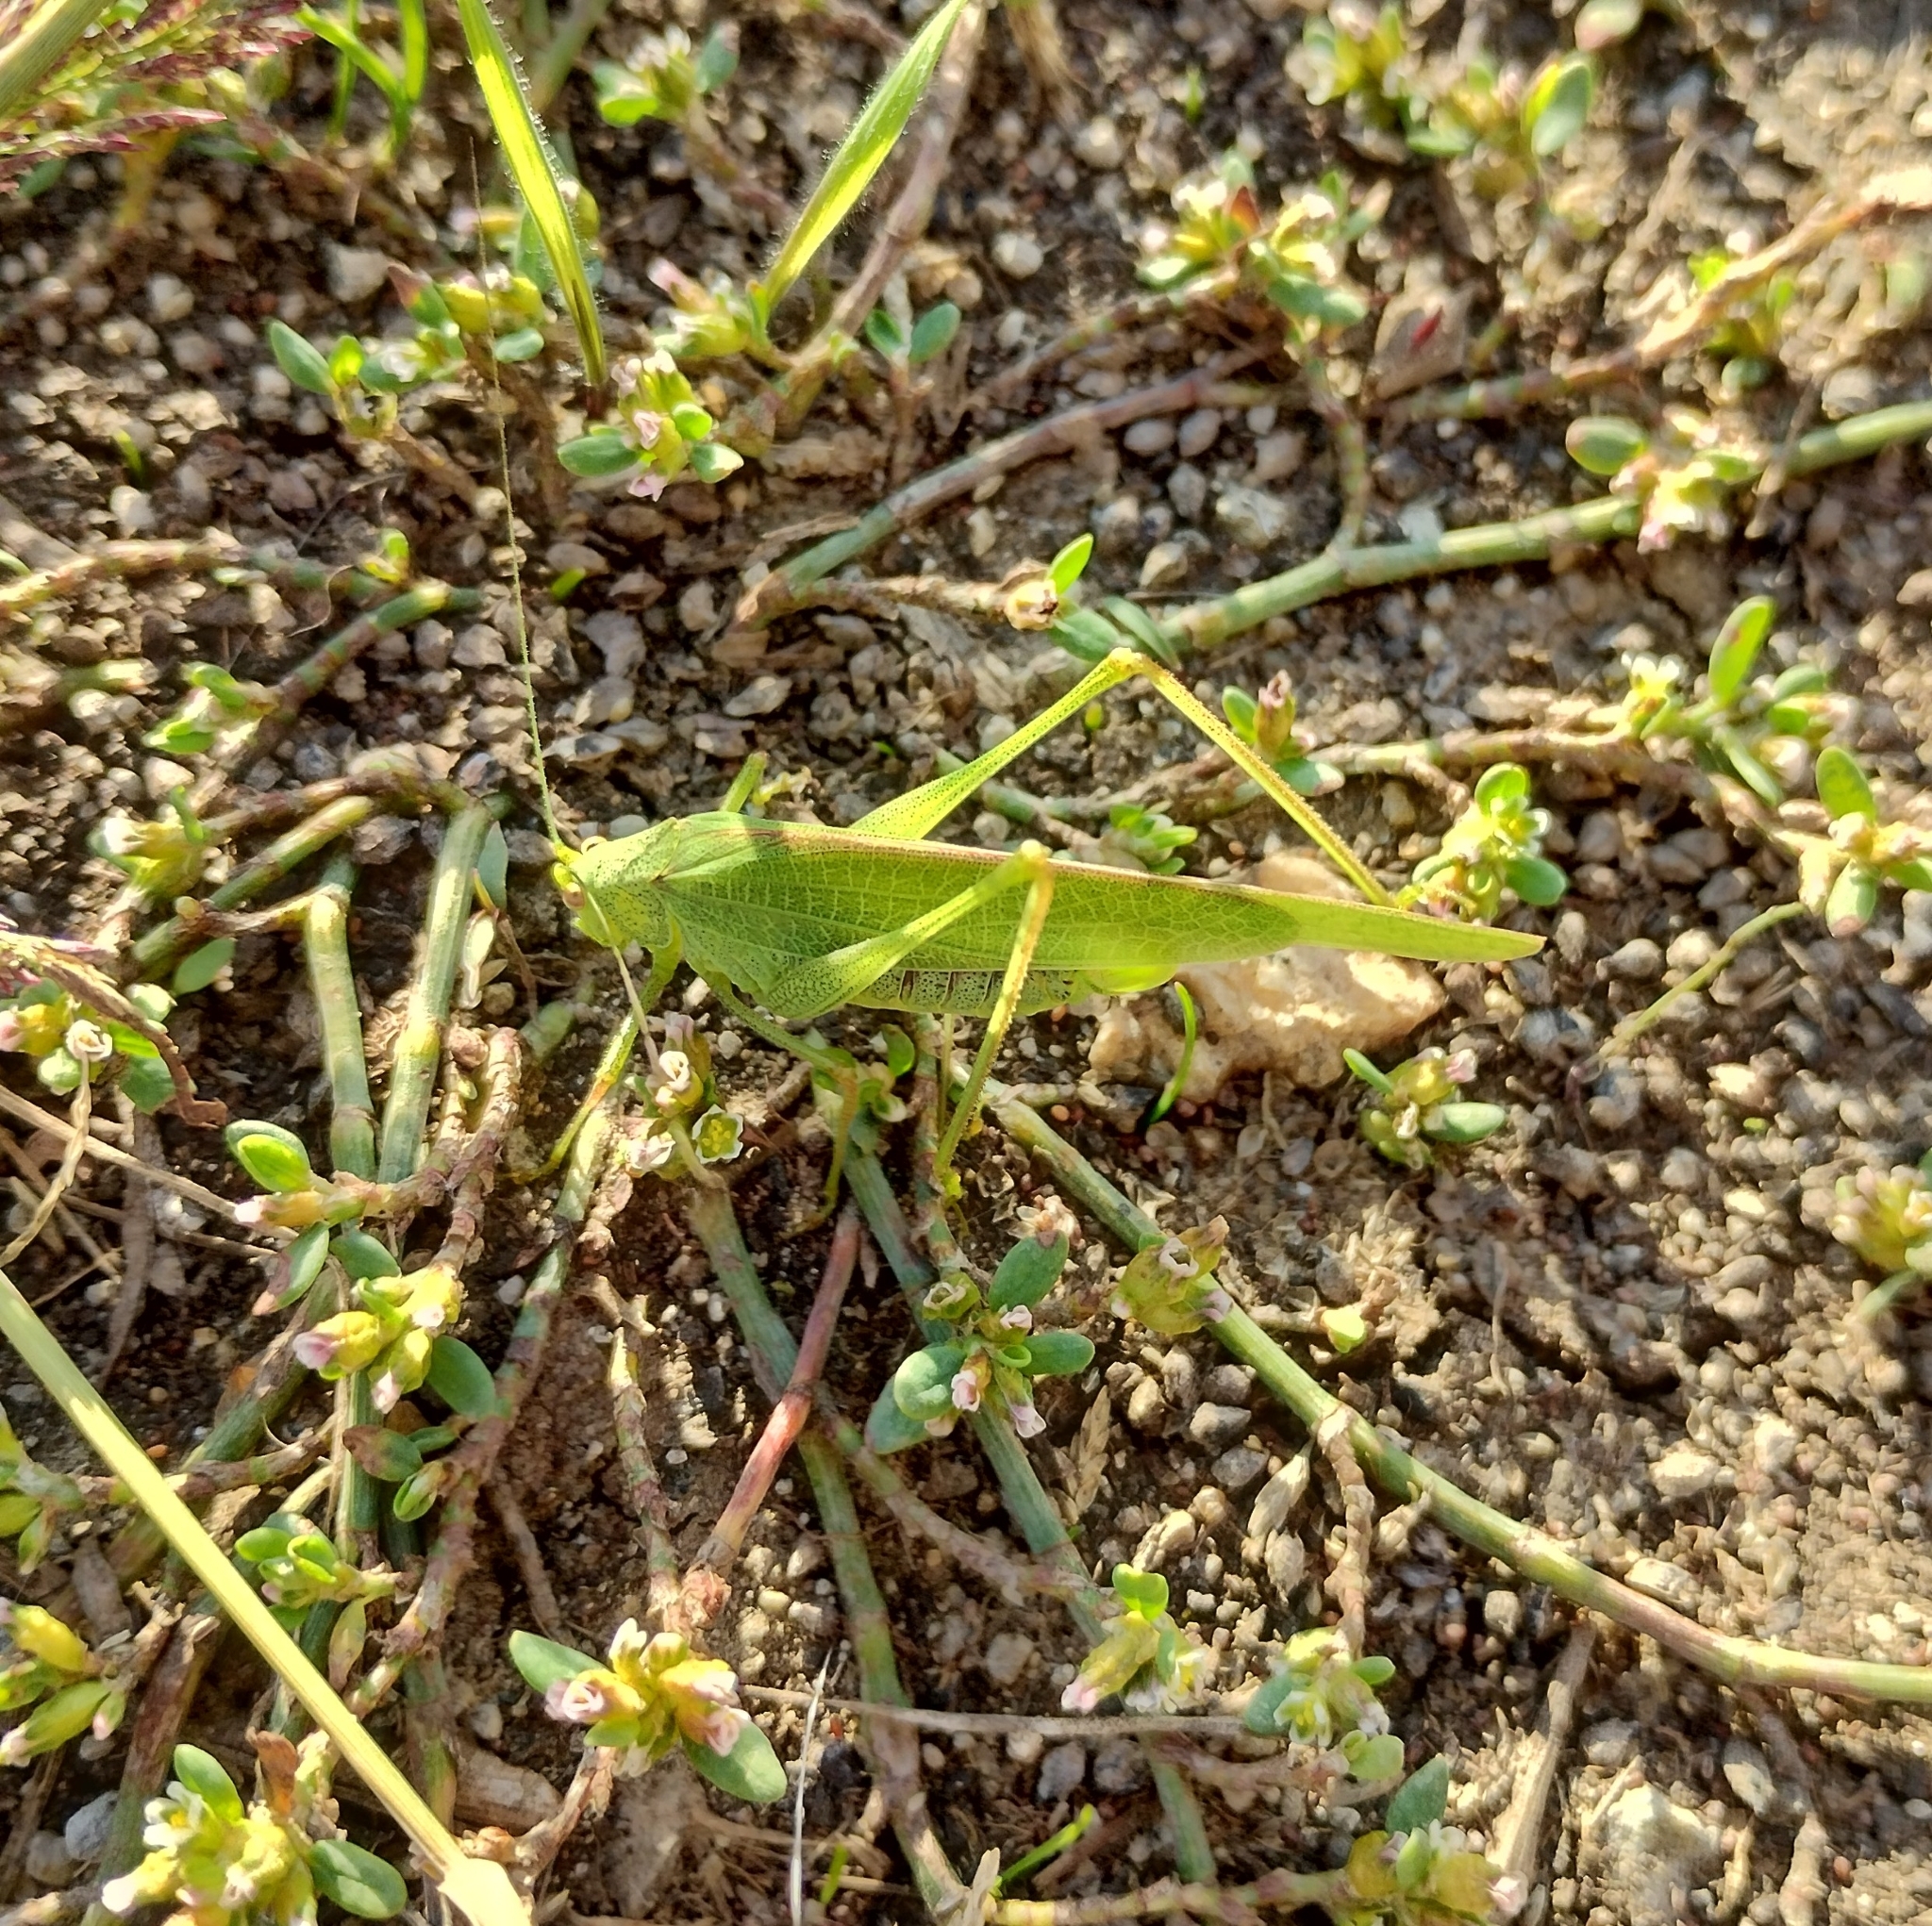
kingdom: Animalia
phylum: Arthropoda
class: Insecta
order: Orthoptera
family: Tettigoniidae
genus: Phaneroptera
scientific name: Phaneroptera nana
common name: Southern sickle bush-cricket
